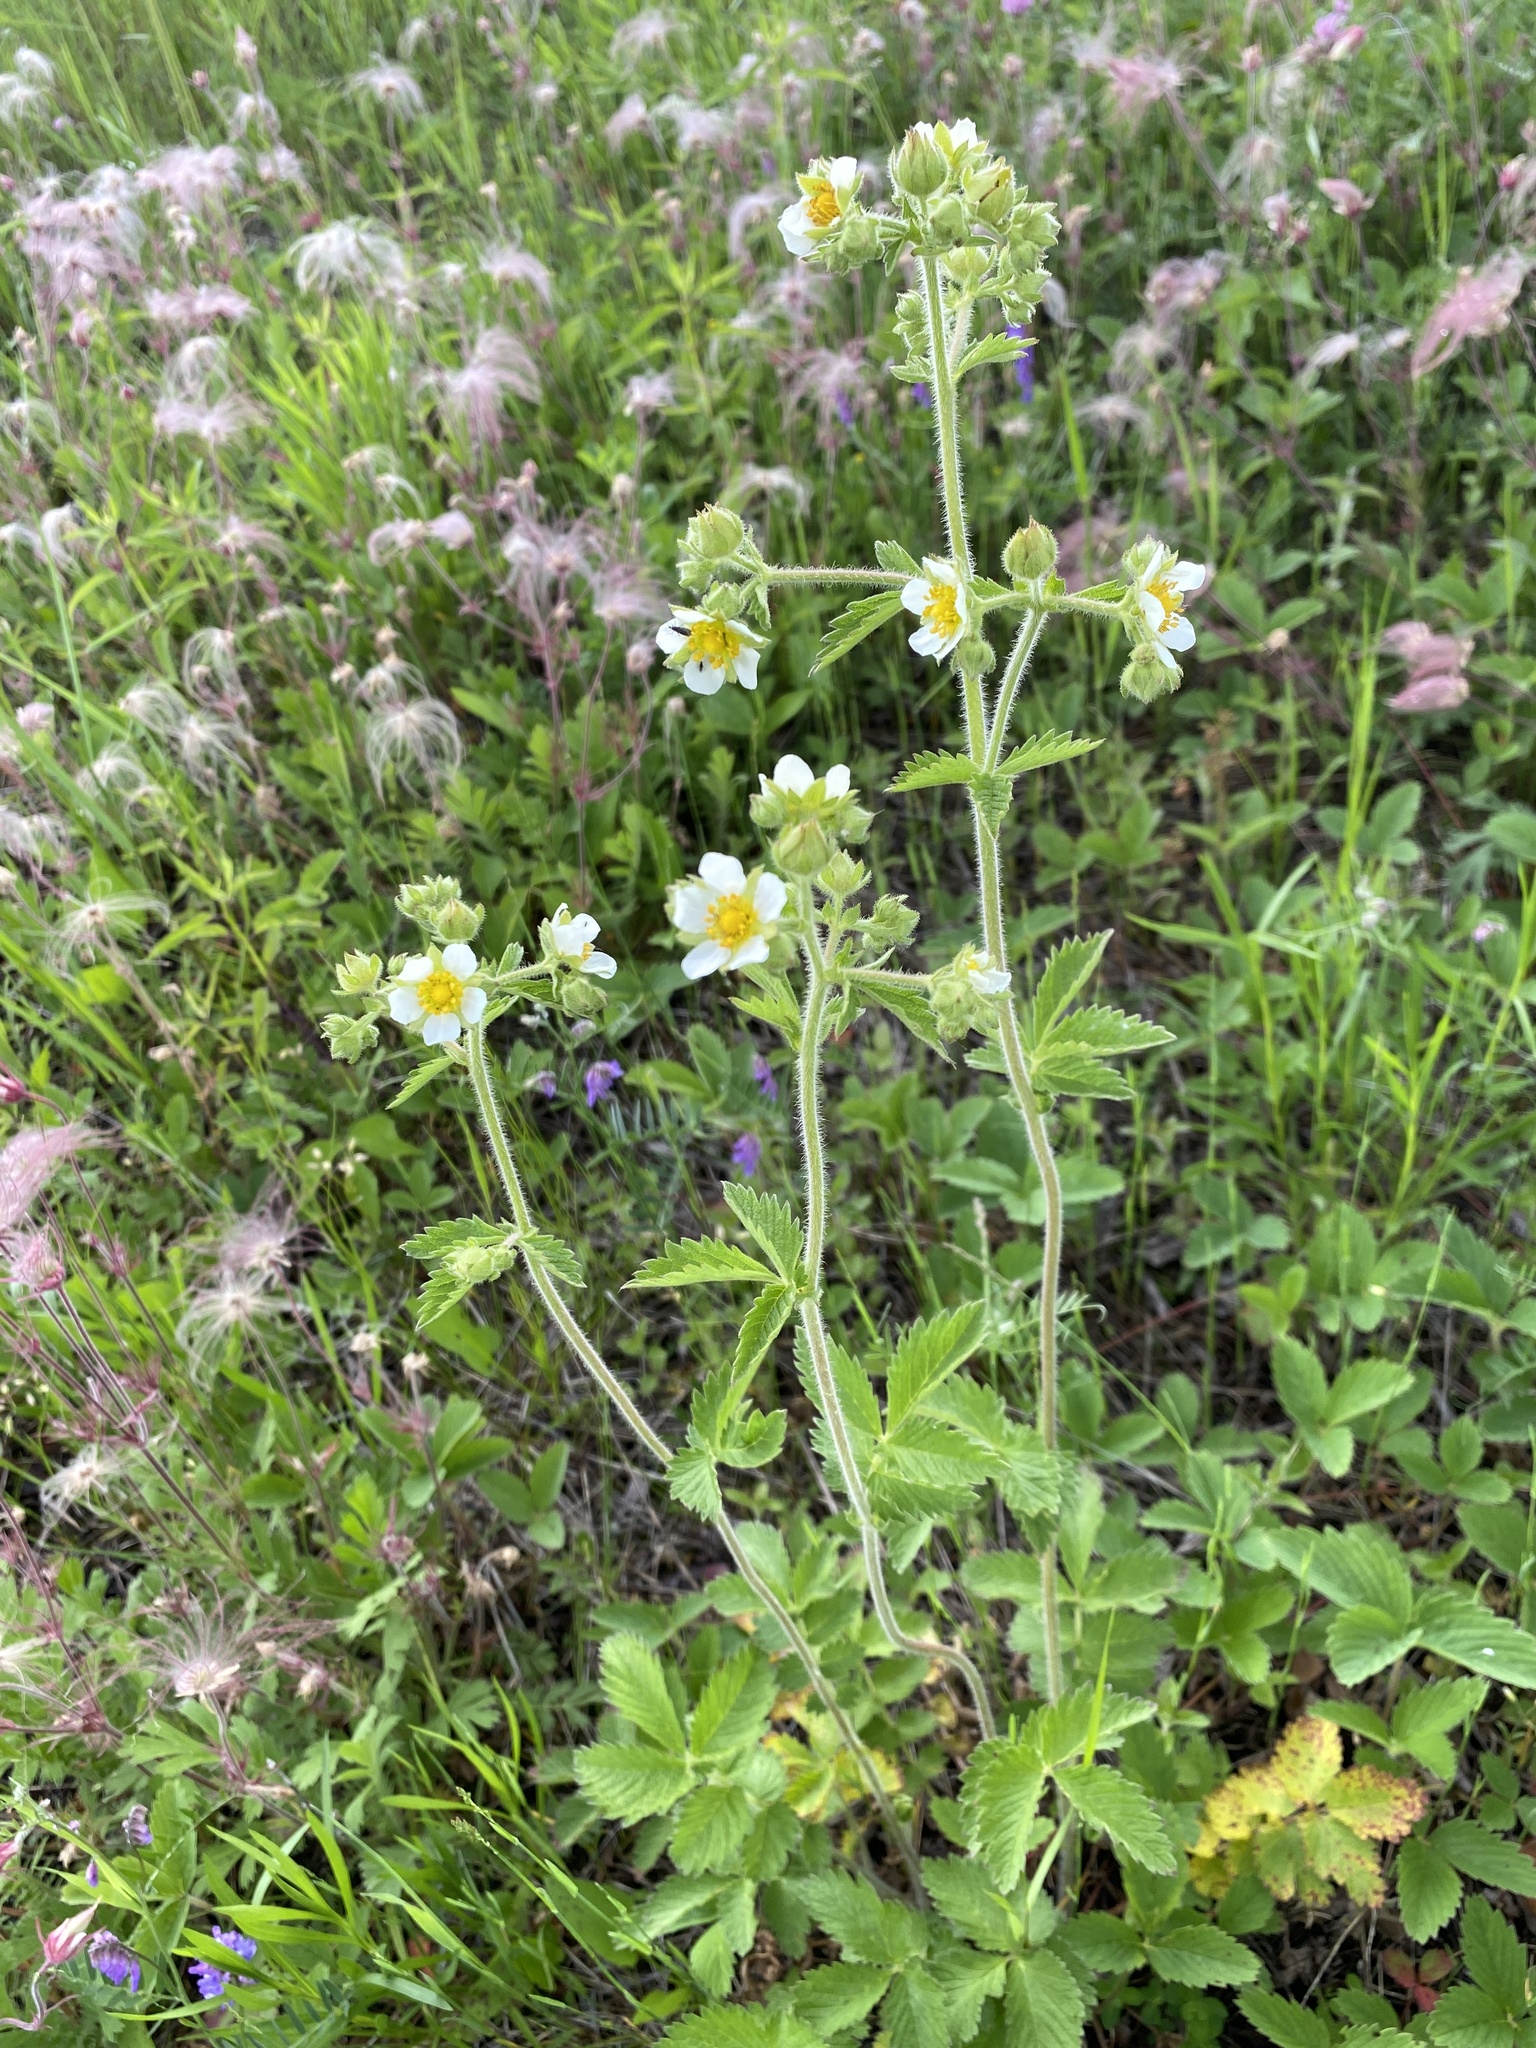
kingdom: Plantae
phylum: Tracheophyta
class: Magnoliopsida
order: Rosales
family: Rosaceae
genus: Drymocallis
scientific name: Drymocallis arguta
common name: Tall cinquefoil
